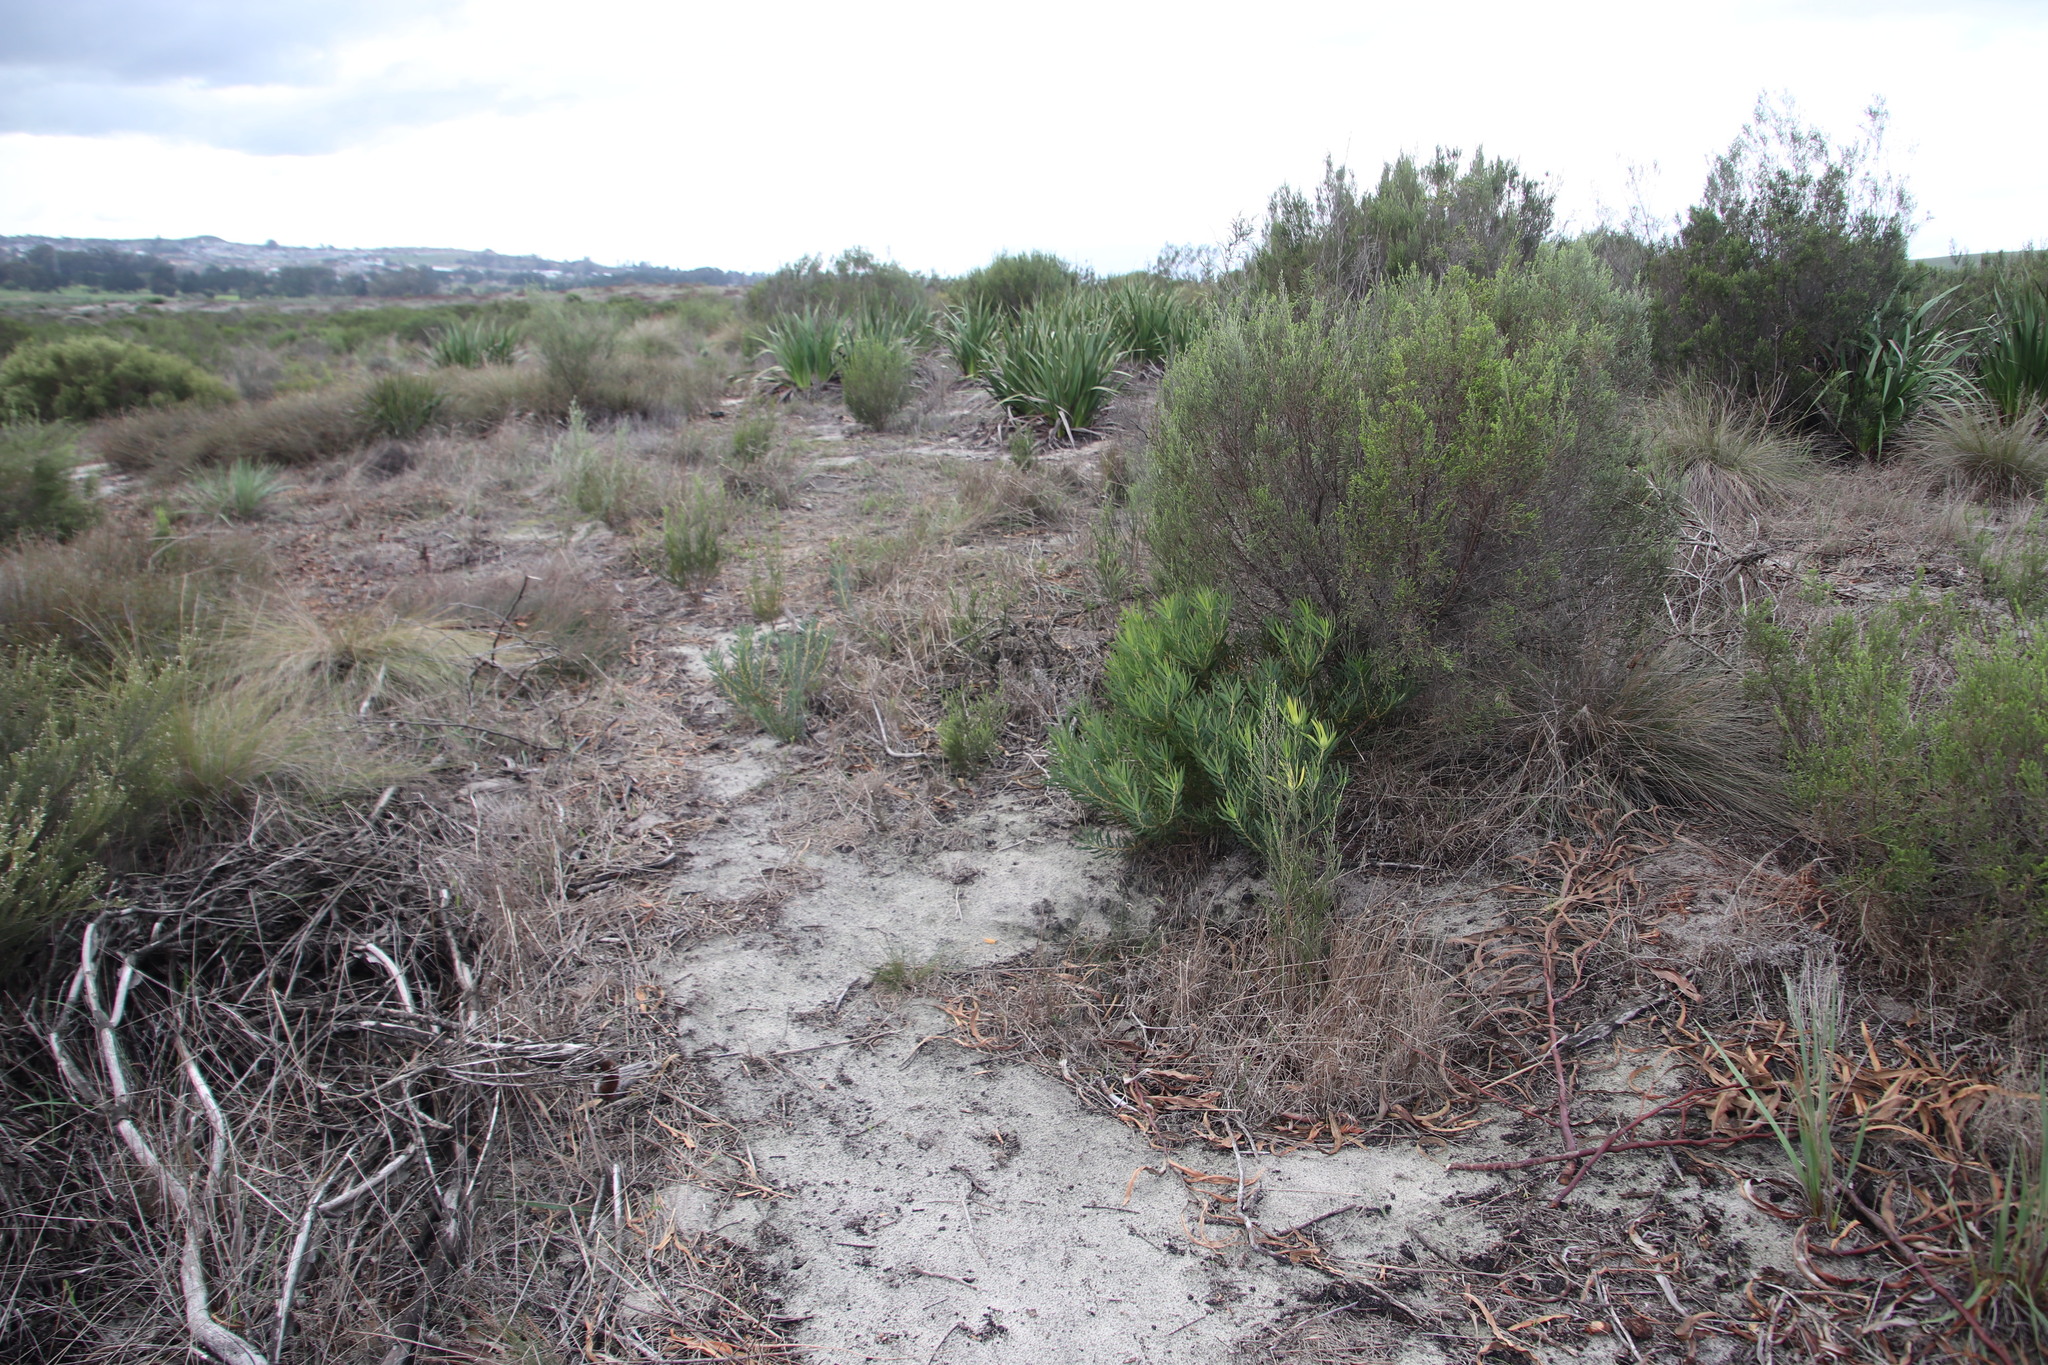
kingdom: Plantae
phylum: Tracheophyta
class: Magnoliopsida
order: Proteales
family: Proteaceae
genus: Leucadendron
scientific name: Leucadendron salignum
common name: Common sunshine conebush
